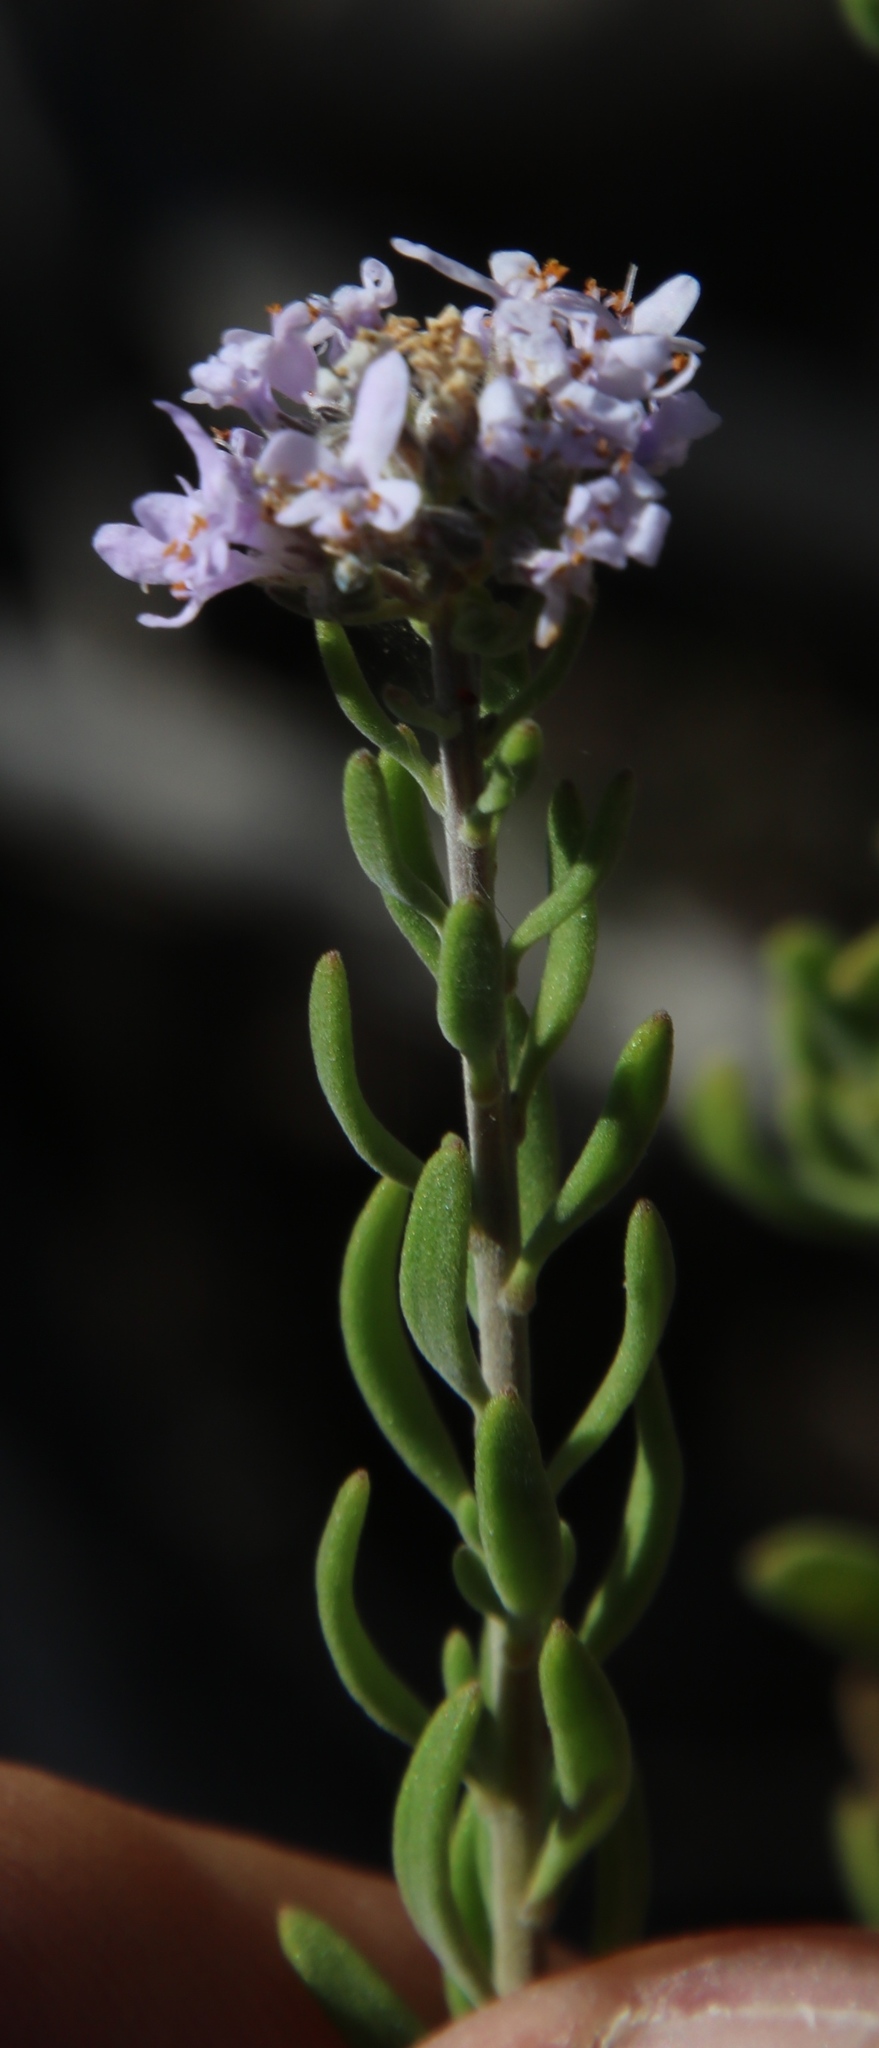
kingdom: Plantae
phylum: Tracheophyta
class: Magnoliopsida
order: Lamiales
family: Scrophulariaceae
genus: Selago
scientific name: Selago albida
